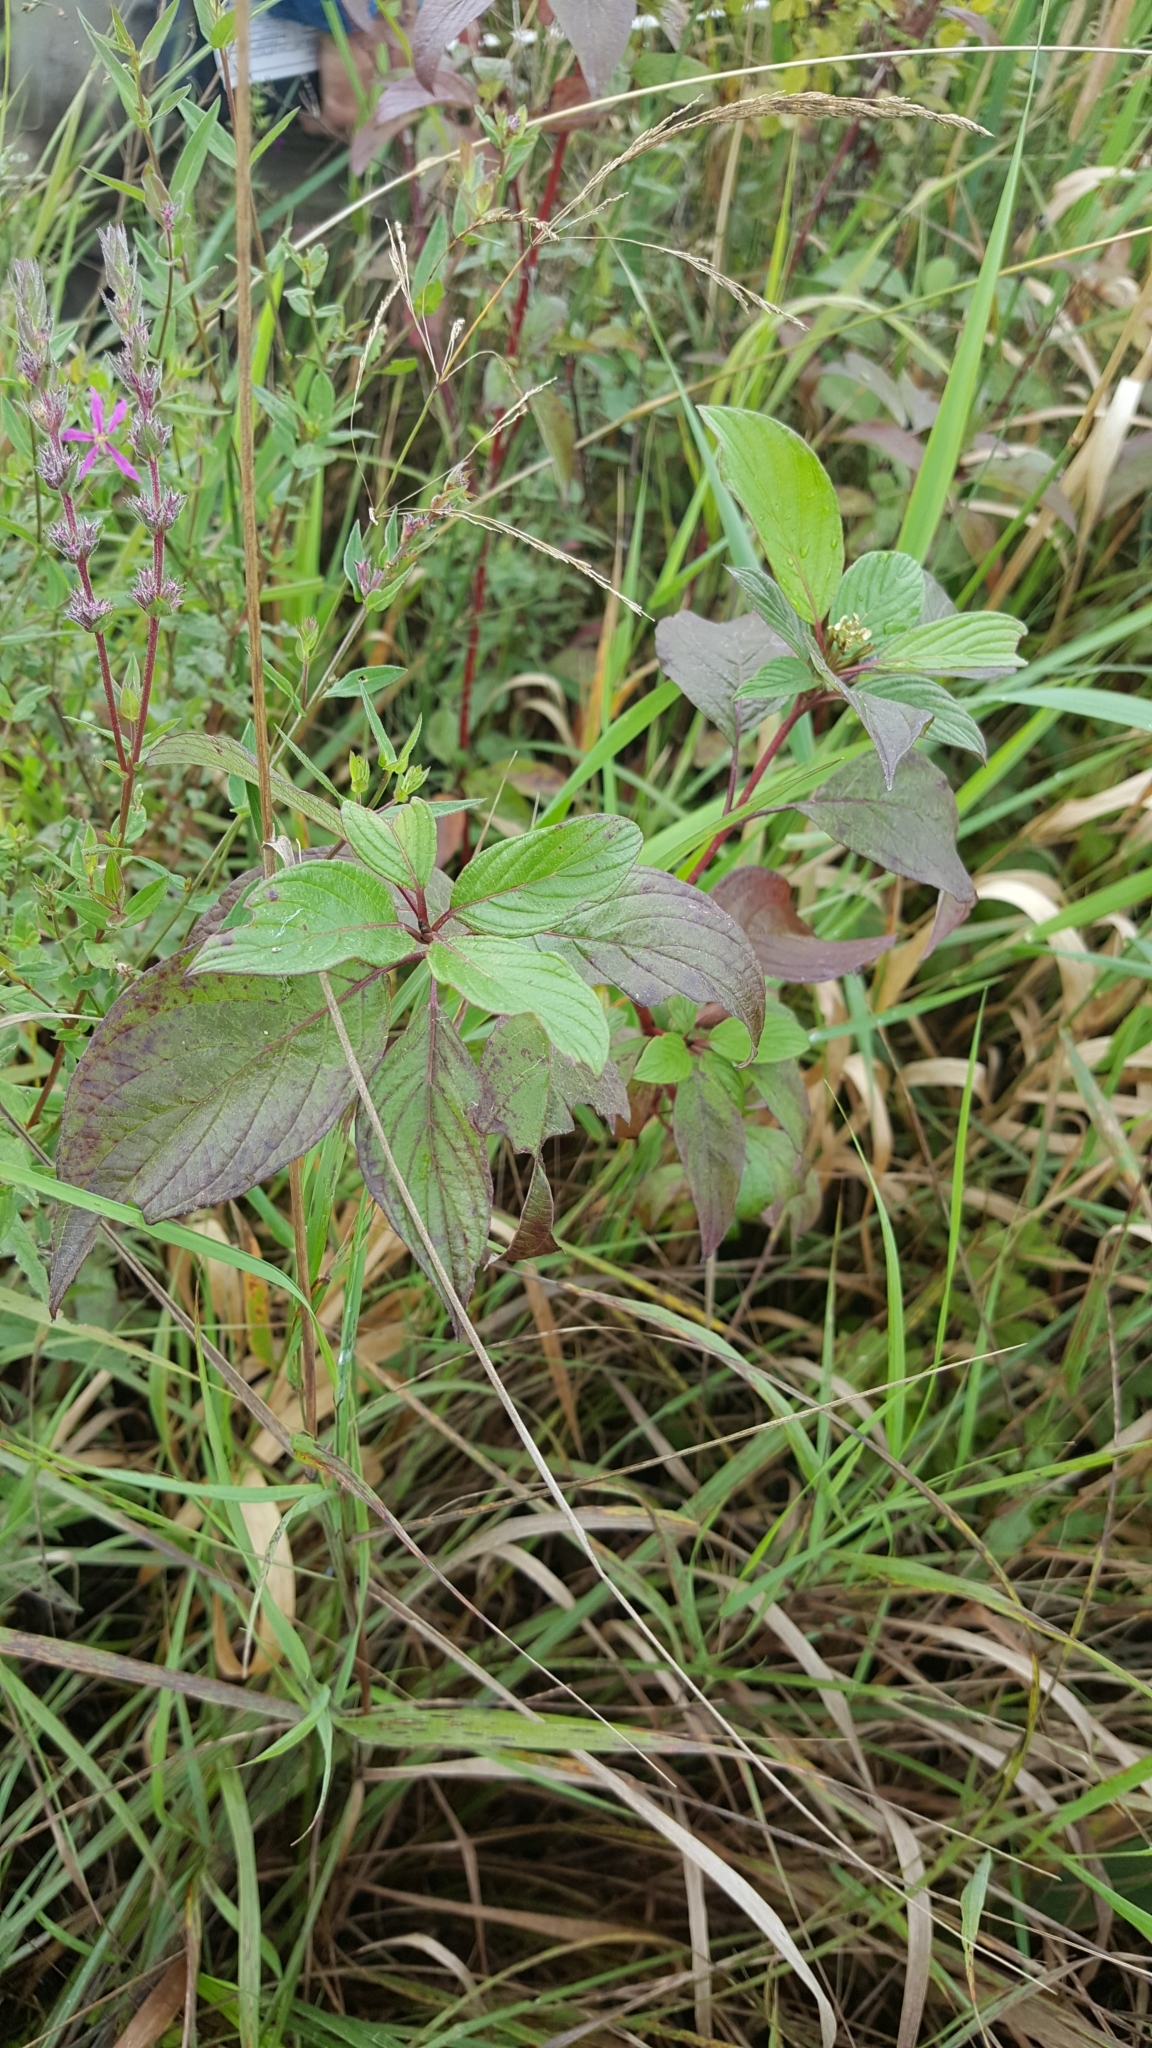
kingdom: Plantae
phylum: Tracheophyta
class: Magnoliopsida
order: Cornales
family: Cornaceae
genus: Cornus
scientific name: Cornus sericea
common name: Red-osier dogwood
